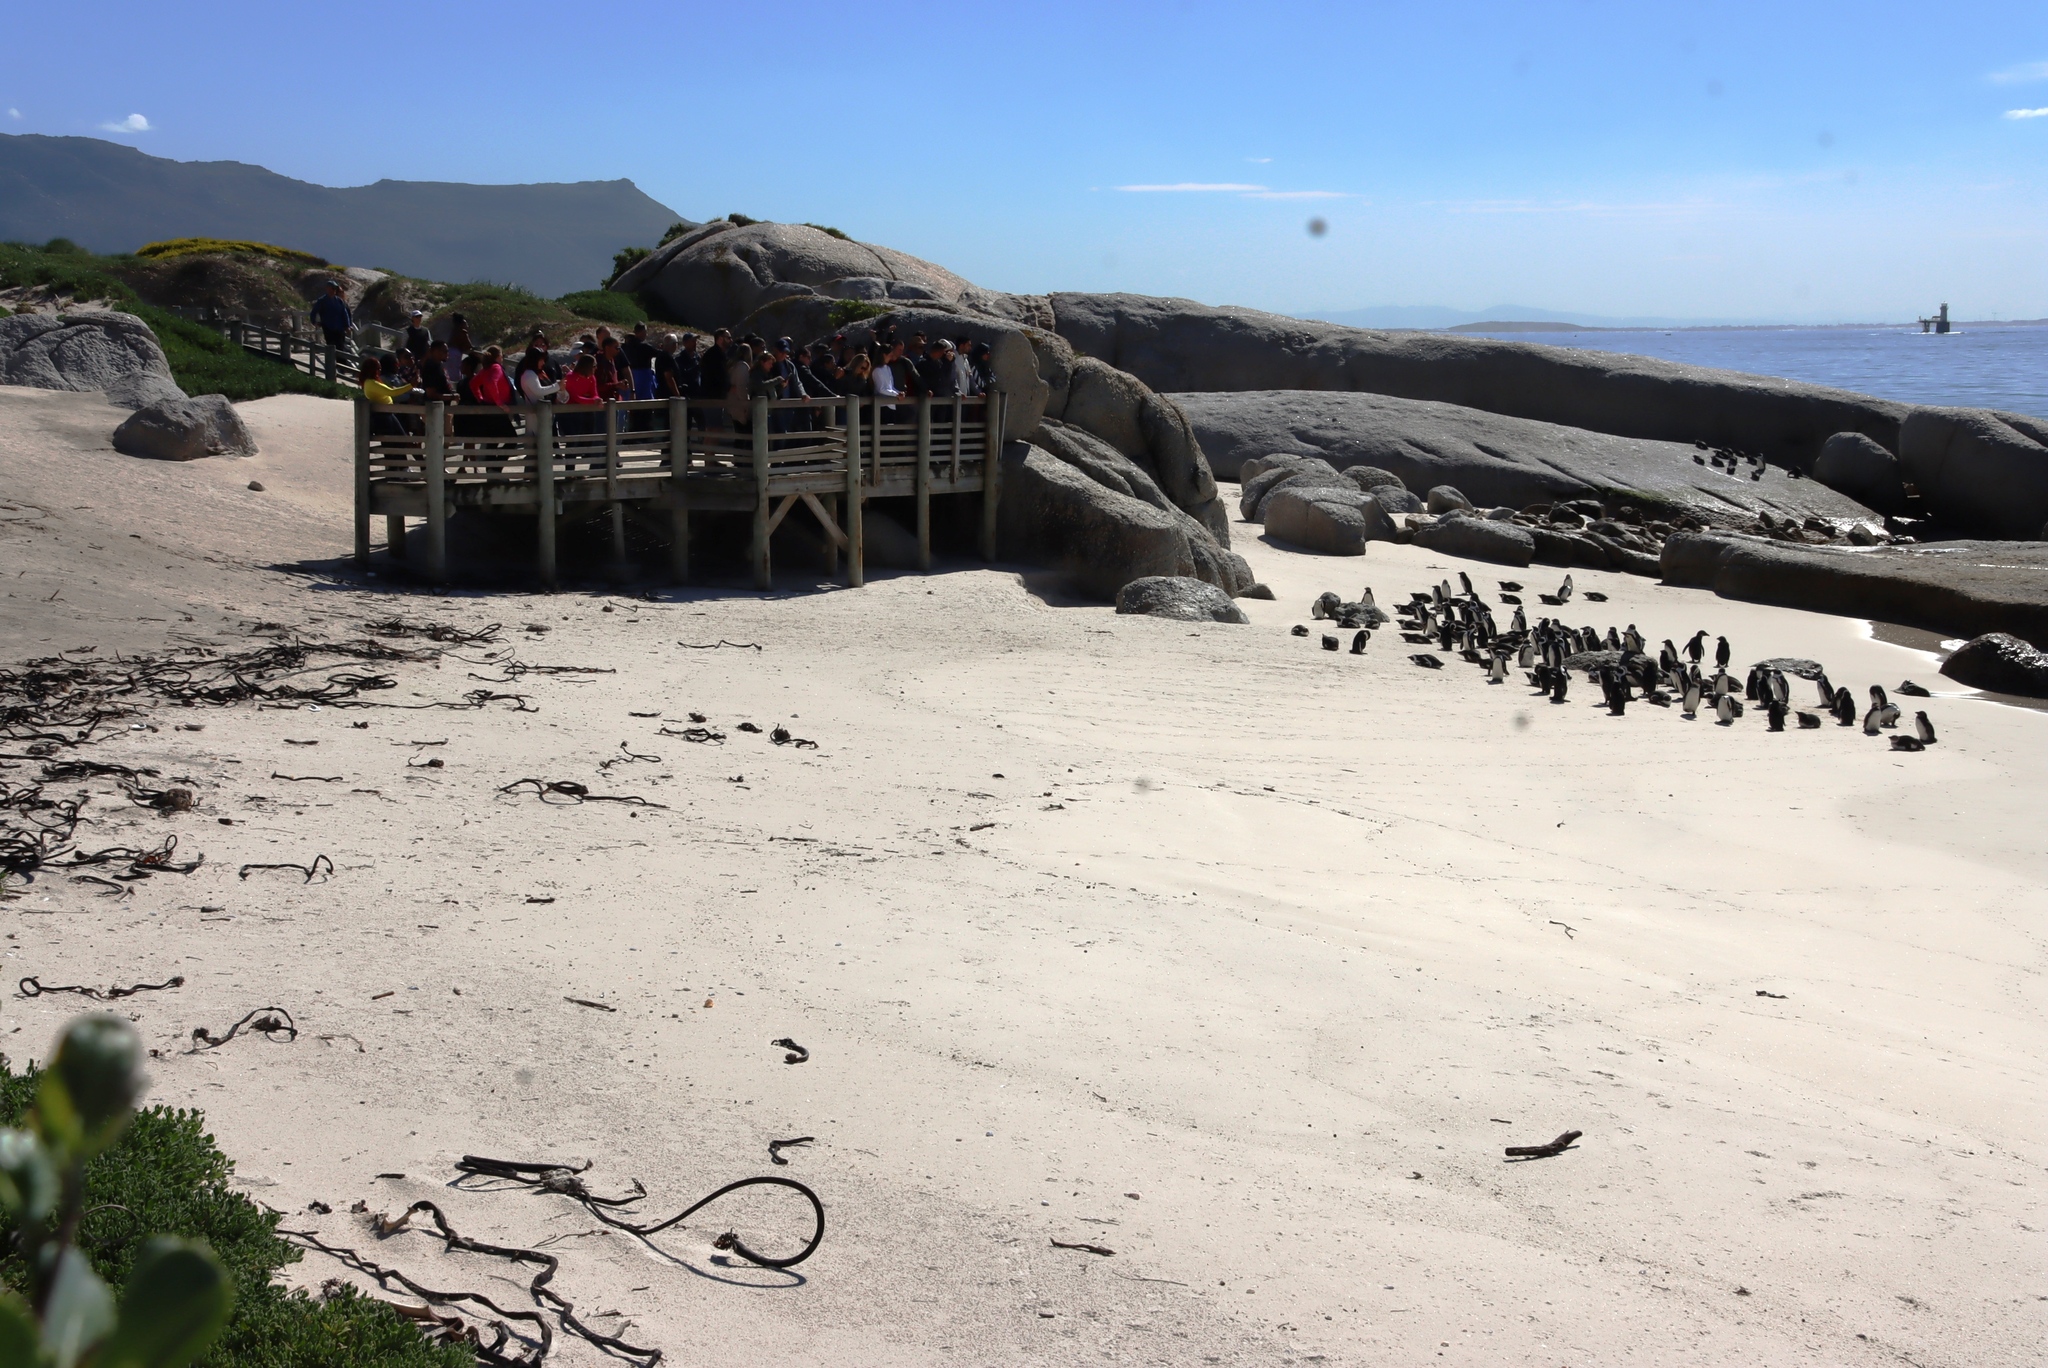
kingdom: Animalia
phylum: Chordata
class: Aves
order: Sphenisciformes
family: Spheniscidae
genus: Spheniscus
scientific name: Spheniscus demersus
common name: African penguin
